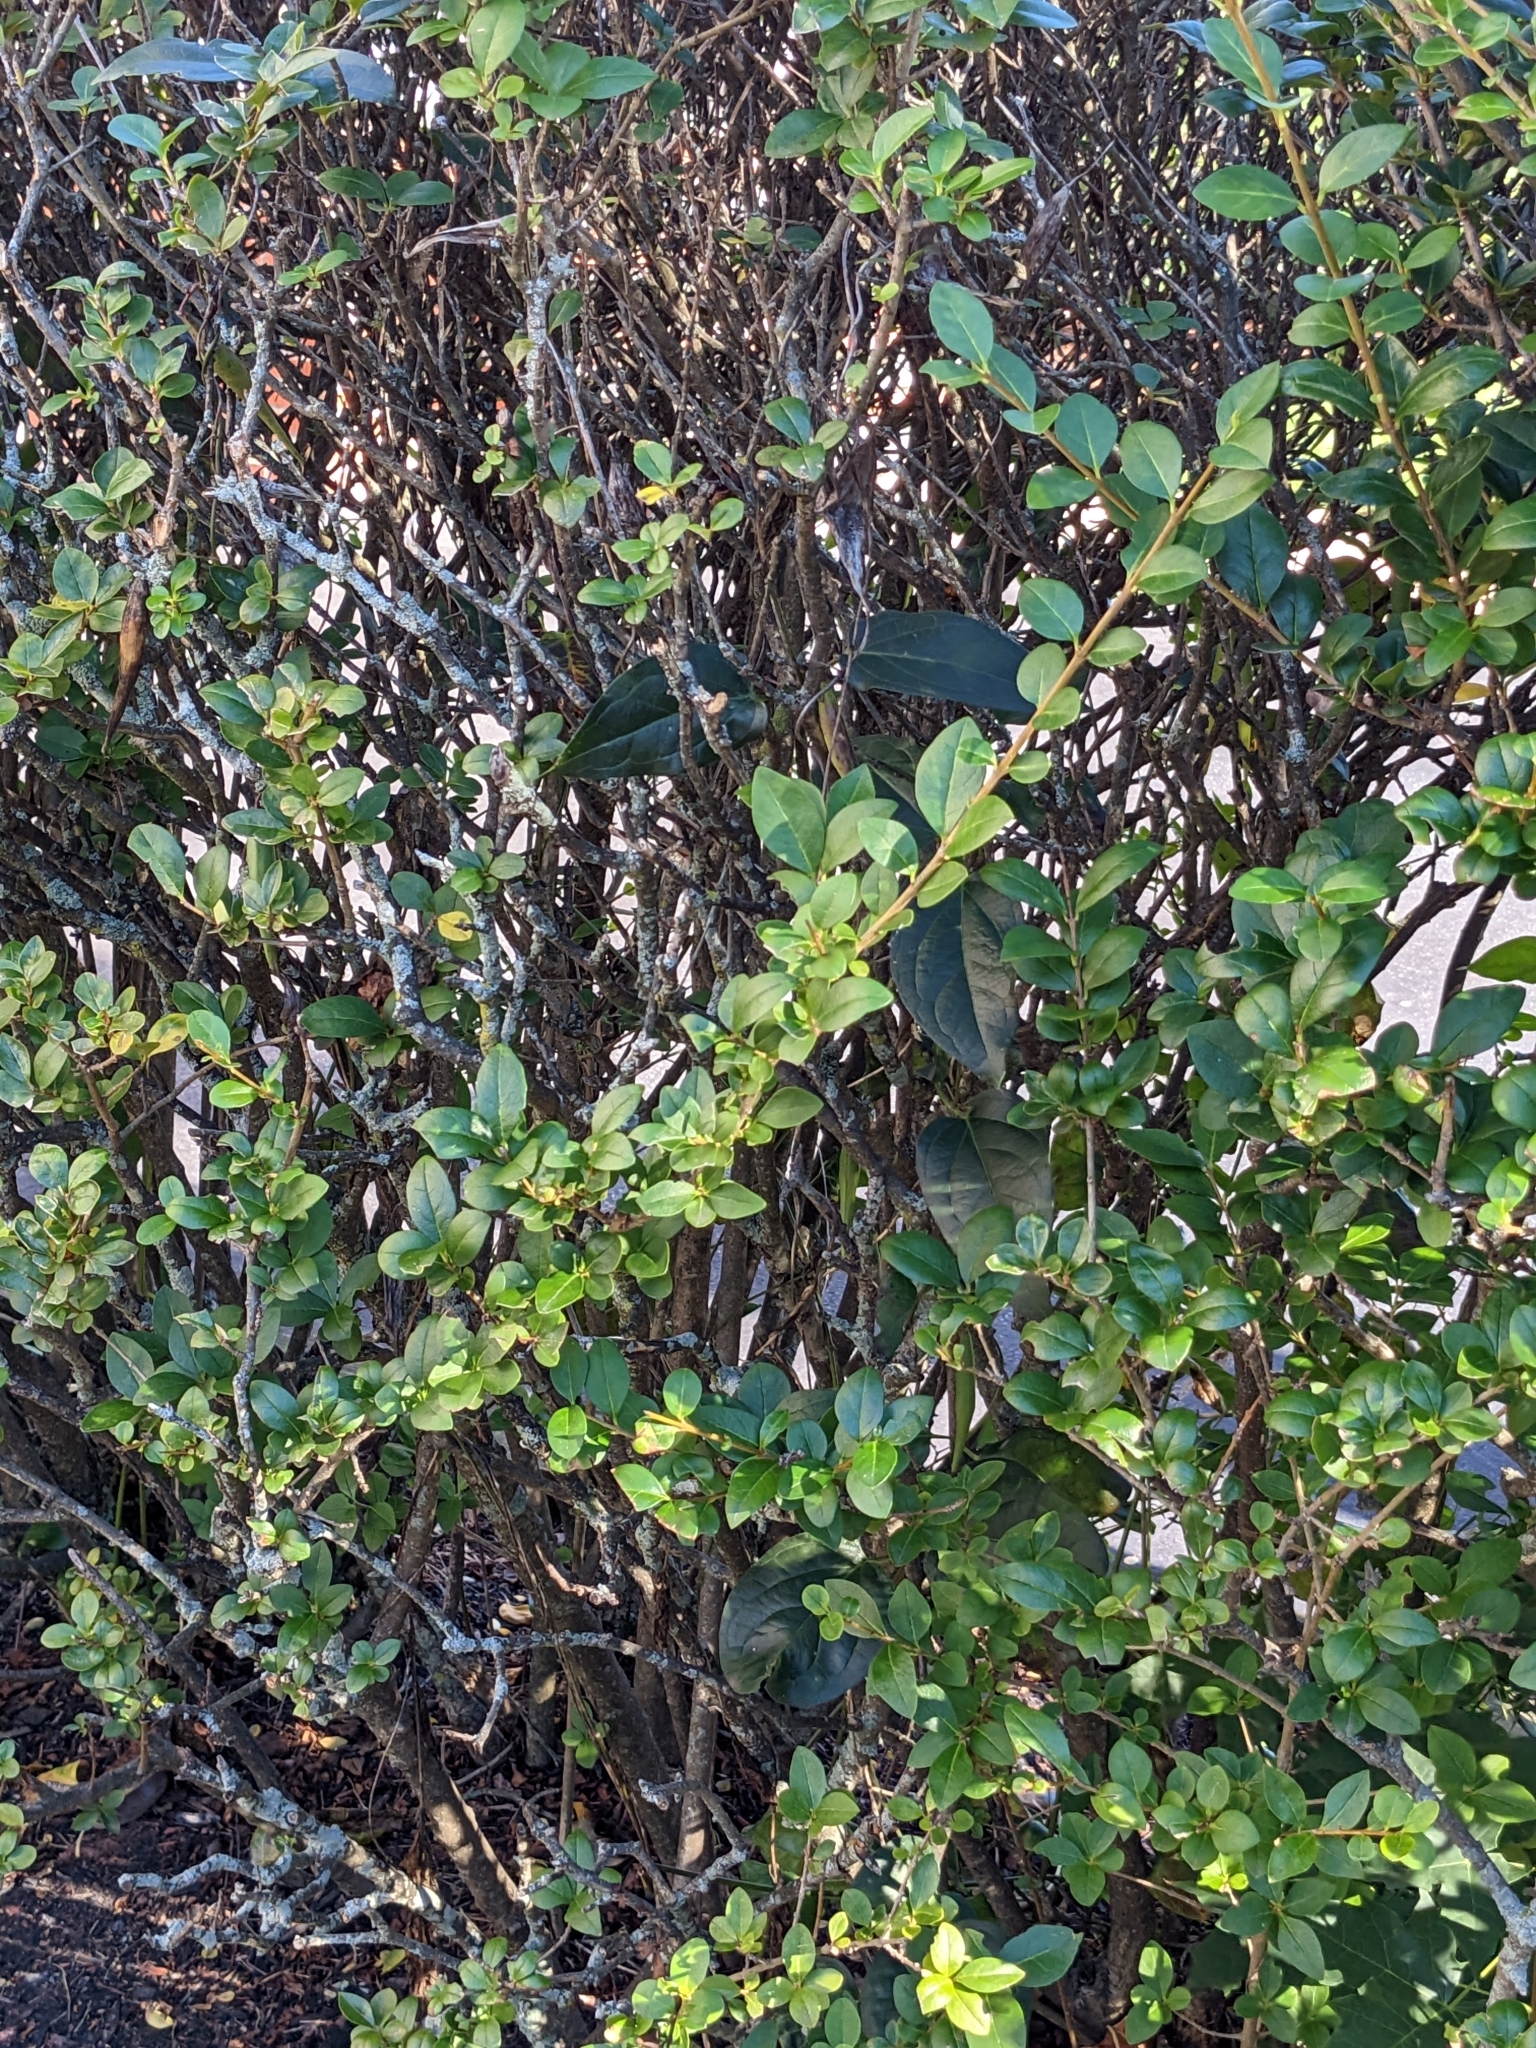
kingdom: Plantae
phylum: Tracheophyta
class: Magnoliopsida
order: Gentianales
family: Apocynaceae
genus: Vincetoxicum
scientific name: Vincetoxicum nigrum
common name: Black swallow-wort
